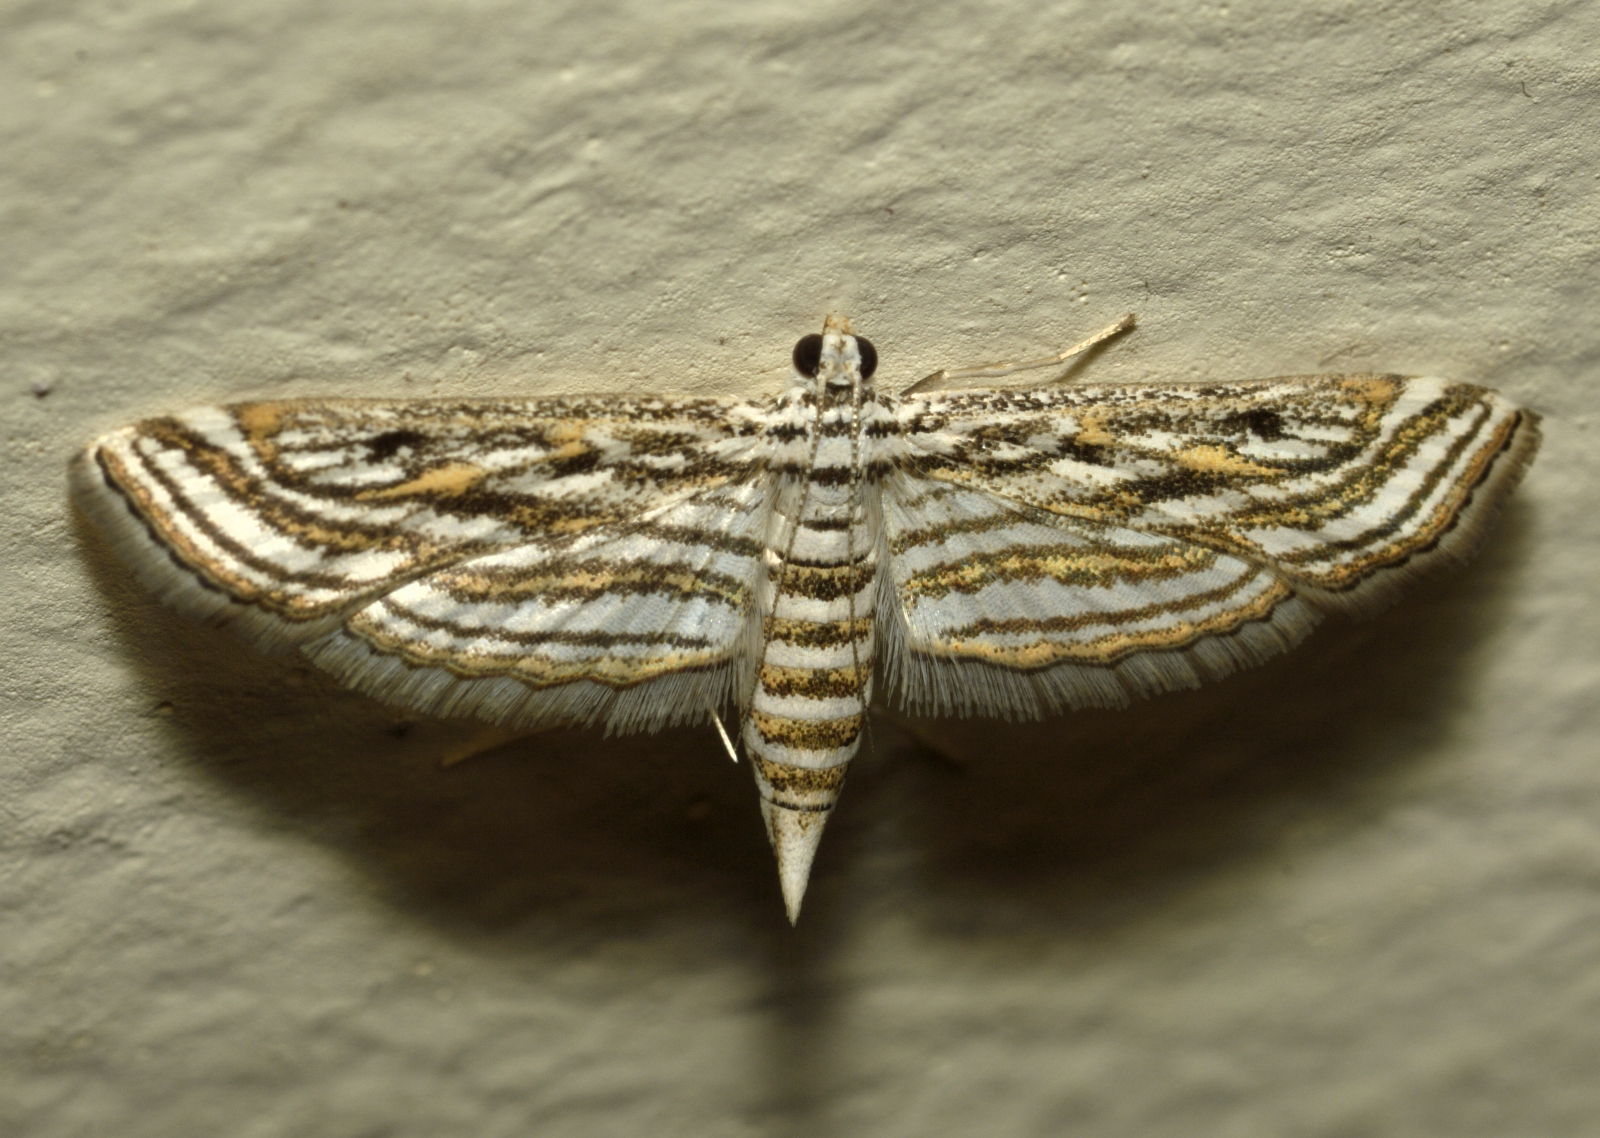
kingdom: Animalia
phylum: Arthropoda
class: Insecta
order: Lepidoptera
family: Crambidae
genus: Parapoynx
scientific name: Parapoynx fluctuosalis
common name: Moth
